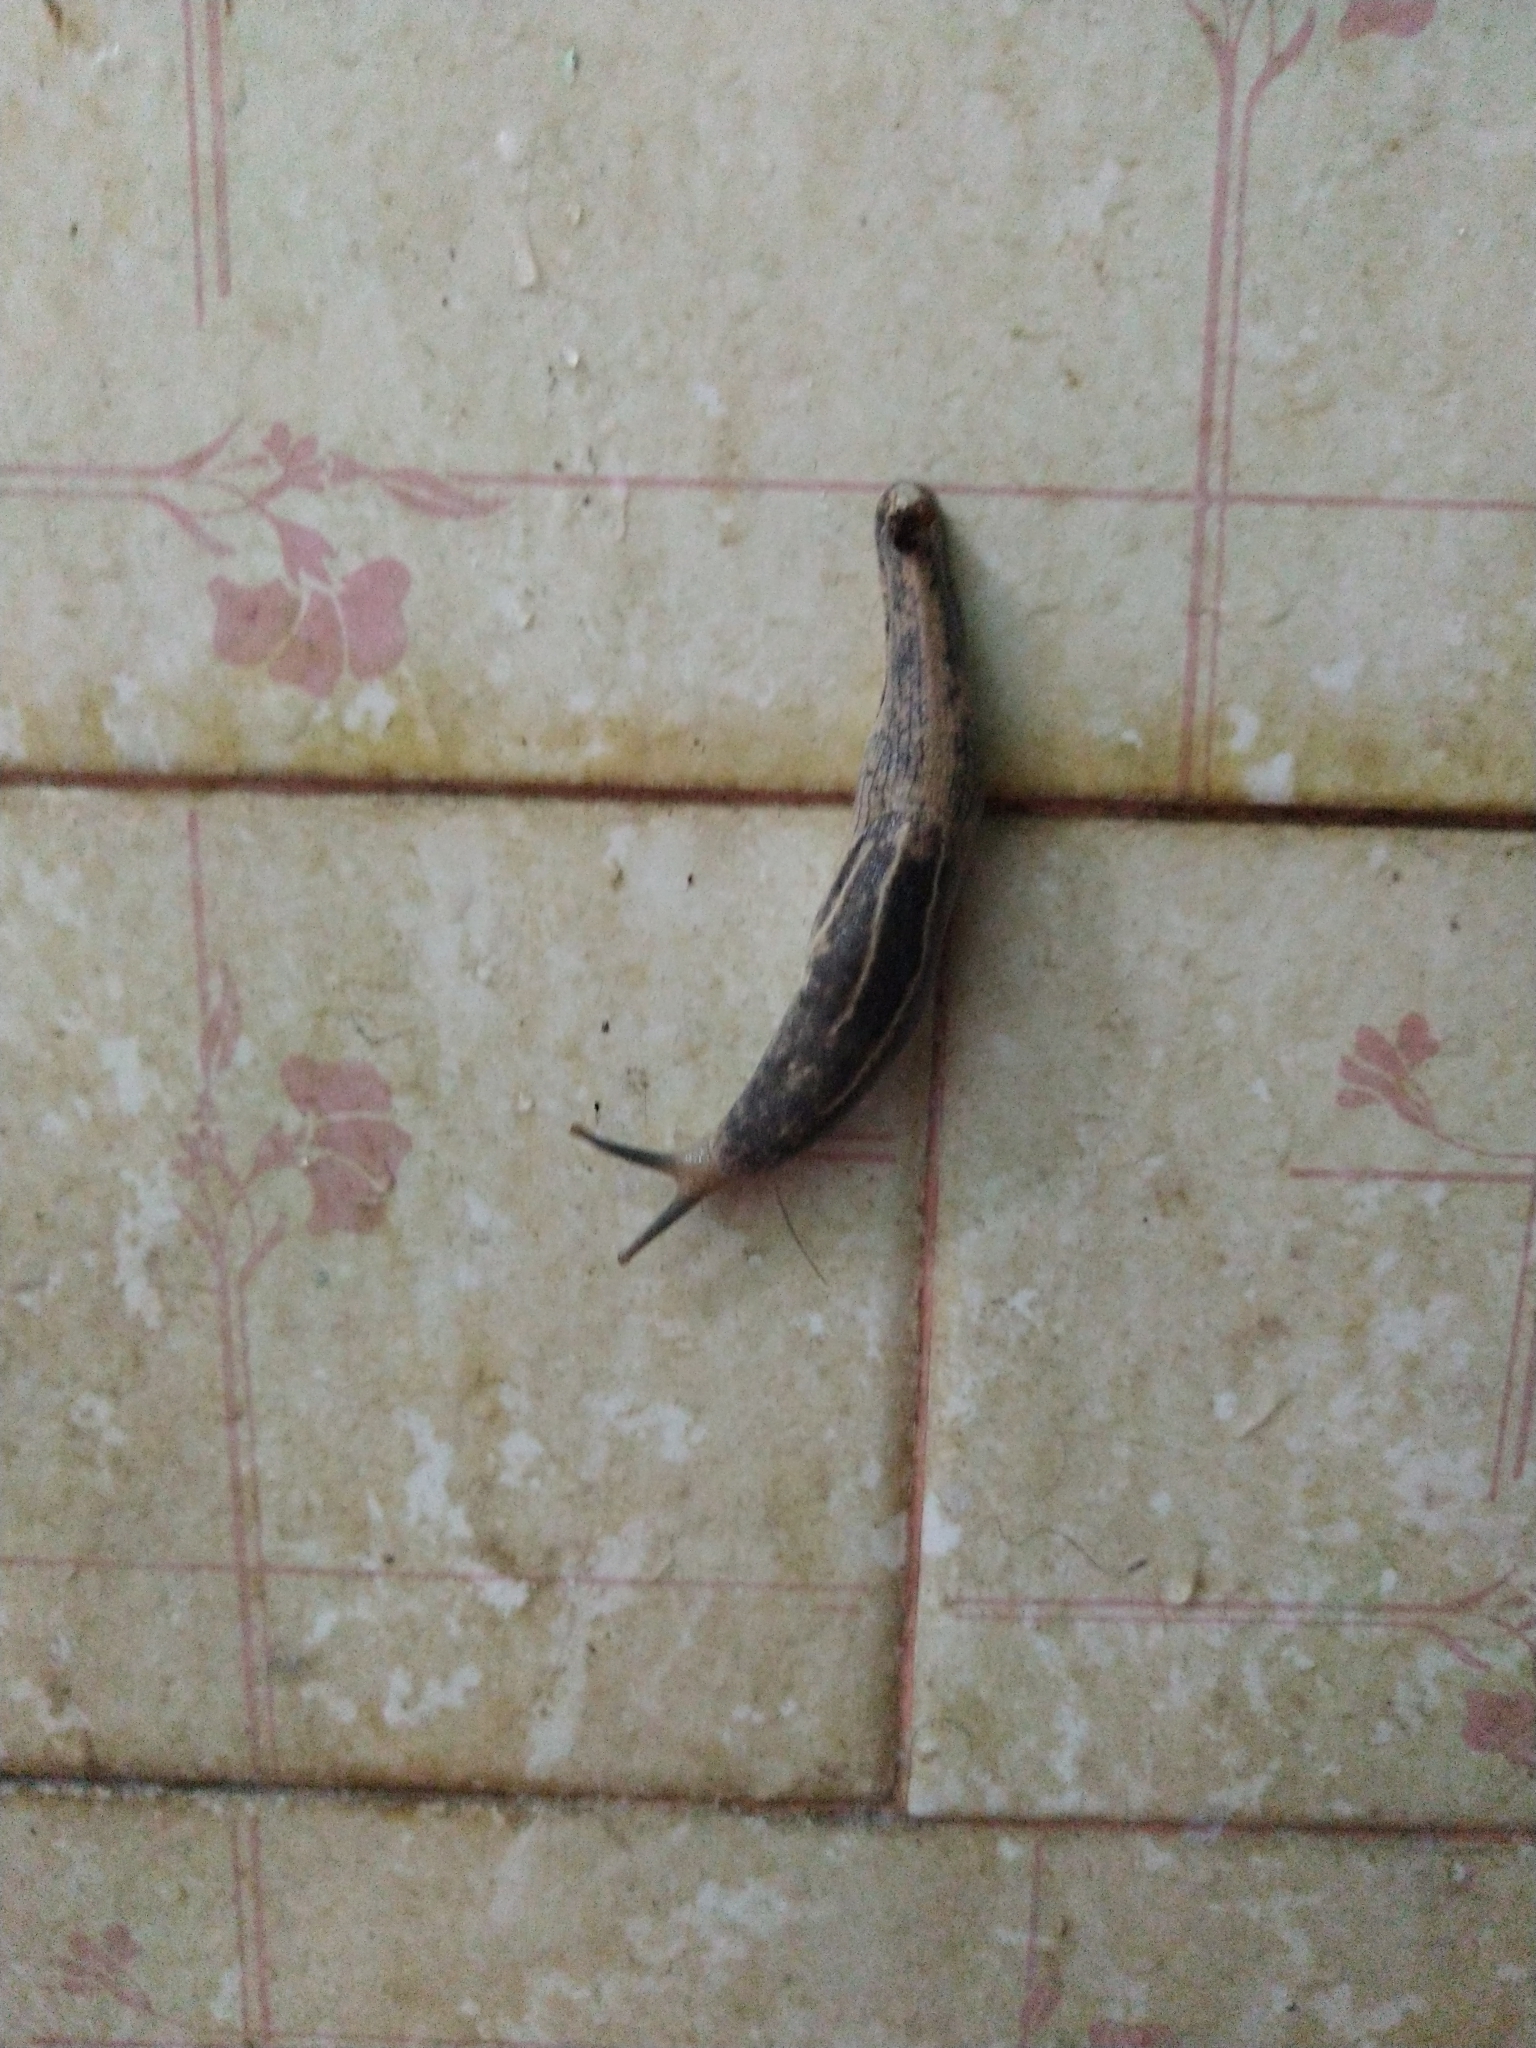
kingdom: Animalia
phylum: Mollusca
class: Gastropoda
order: Stylommatophora
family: Ariophantidae
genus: Mariaella
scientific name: Mariaella dussumieri
